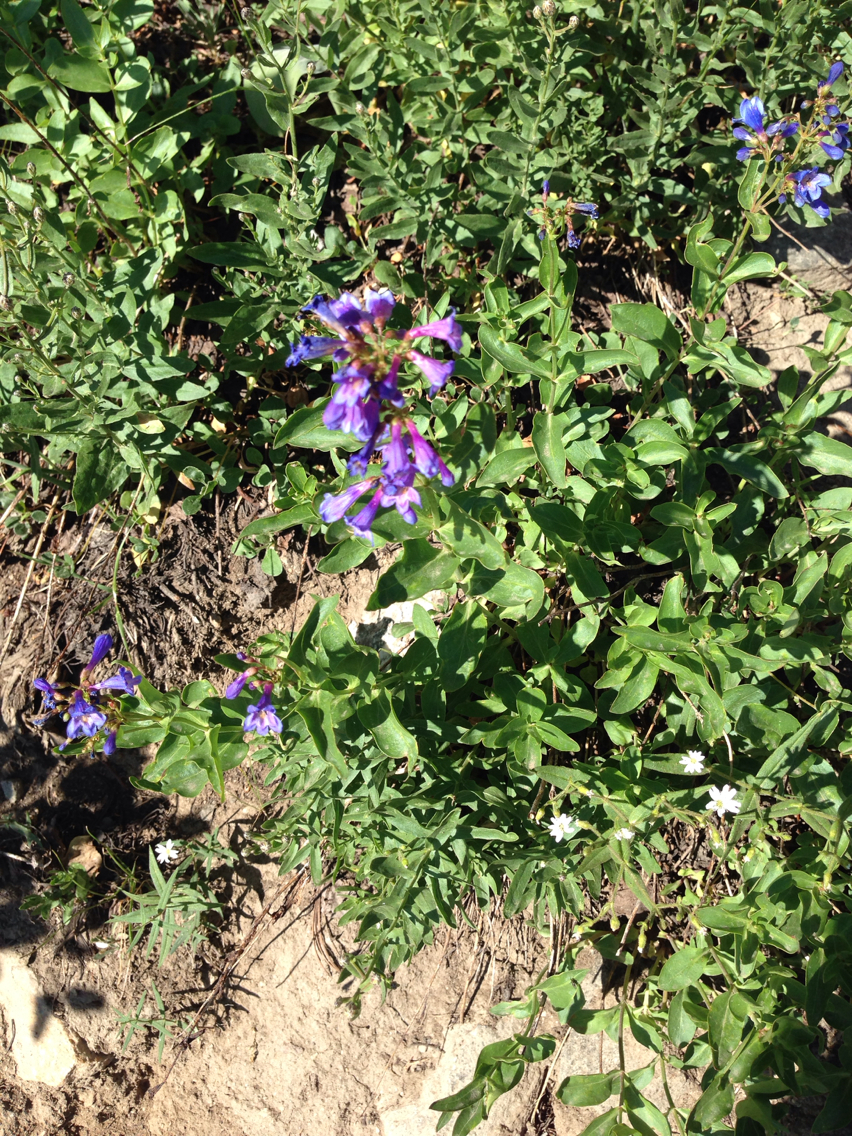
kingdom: Plantae
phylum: Tracheophyta
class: Magnoliopsida
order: Lamiales
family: Plantaginaceae
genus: Penstemon
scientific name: Penstemon rydbergii
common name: Rydberg's beardtongue
